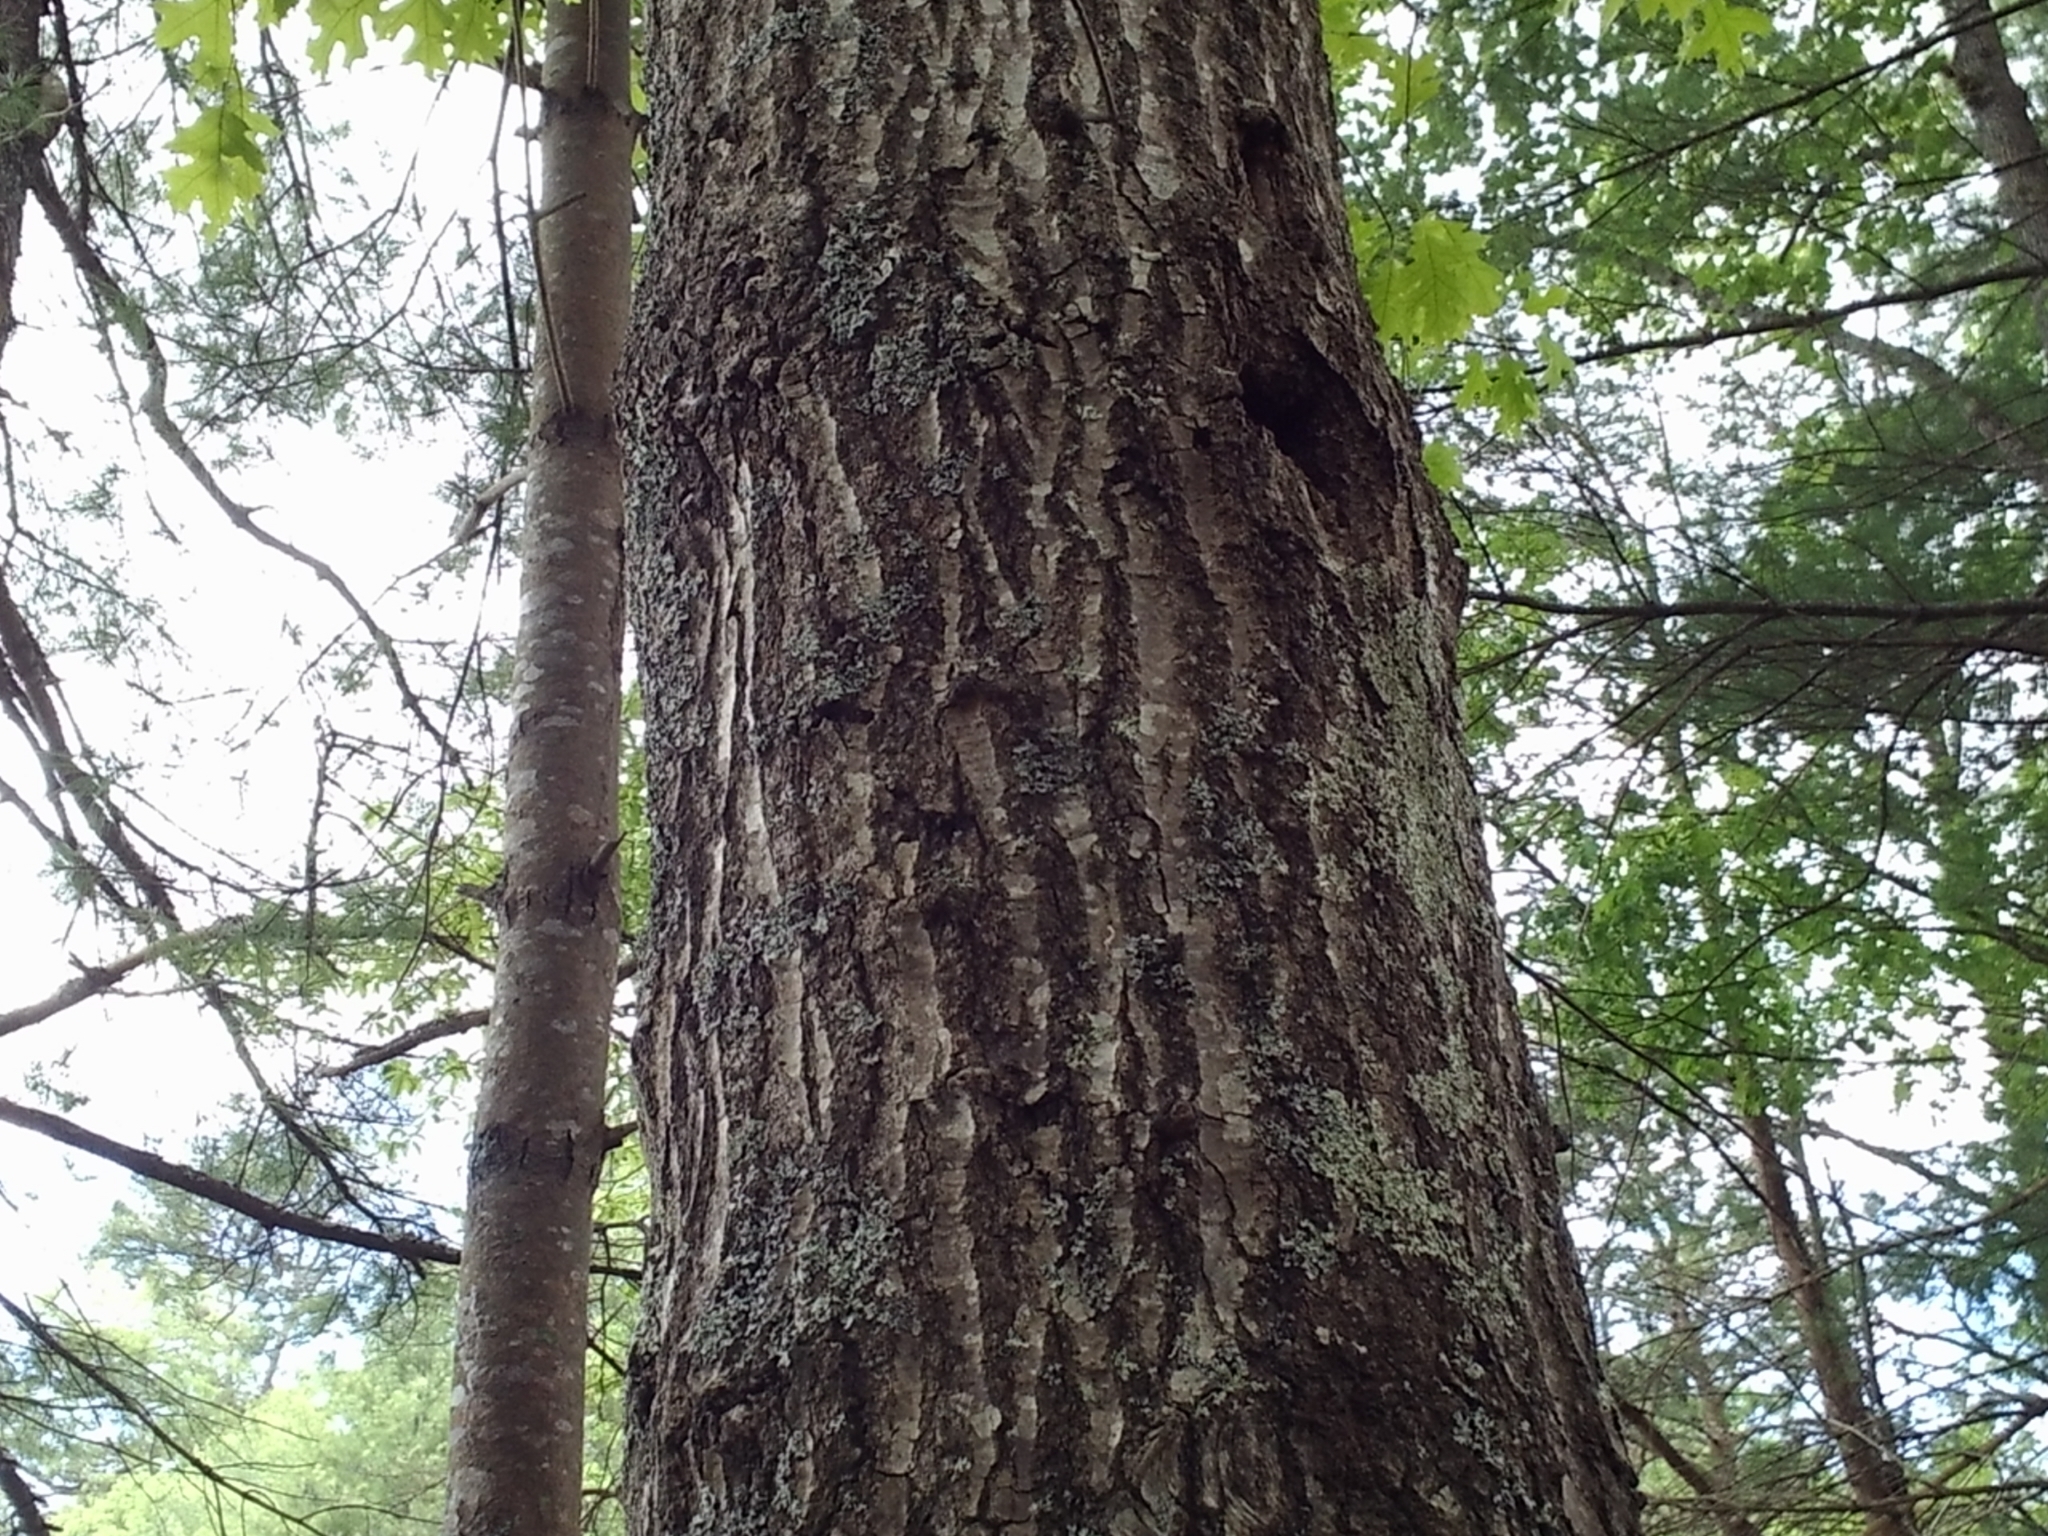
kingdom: Plantae
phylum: Tracheophyta
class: Magnoliopsida
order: Fagales
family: Fagaceae
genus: Quercus
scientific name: Quercus rubra
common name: Red oak
